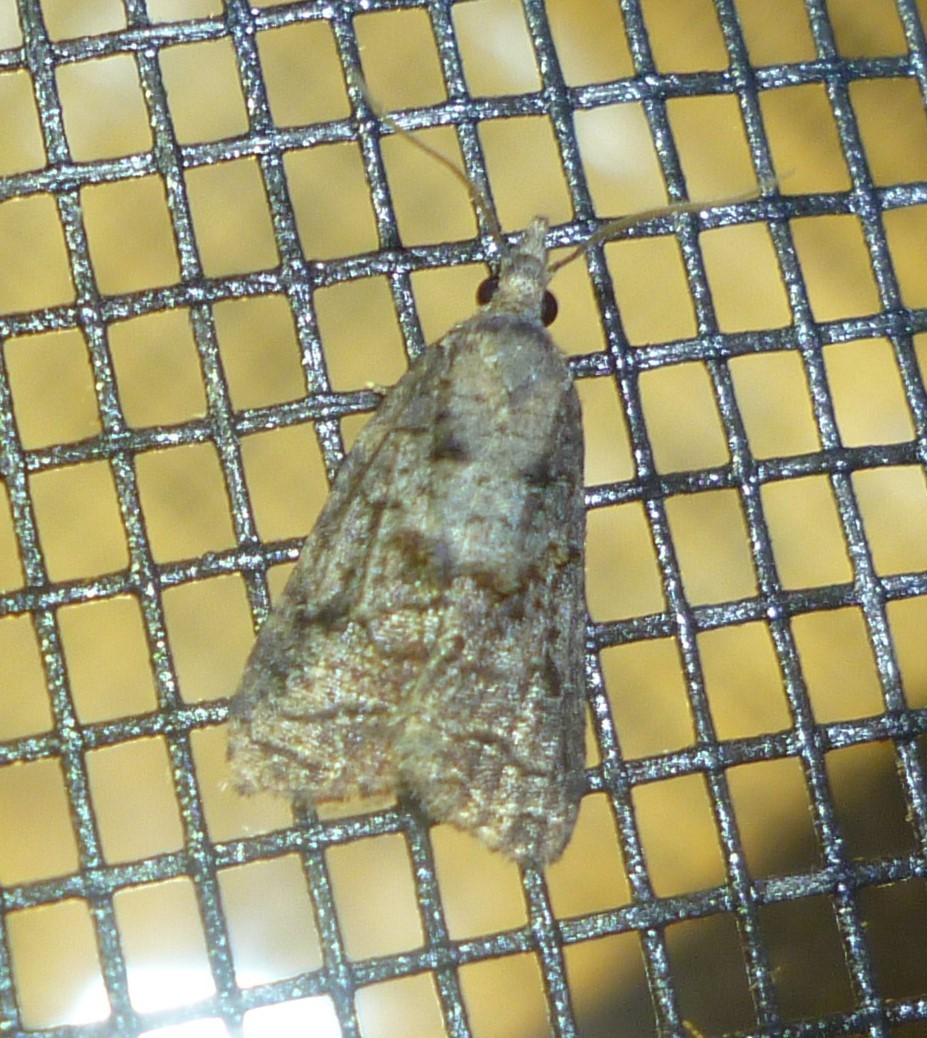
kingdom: Animalia
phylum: Arthropoda
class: Insecta
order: Lepidoptera
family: Tortricidae
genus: Platynota
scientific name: Platynota idaeusalis
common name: Tufted apple bud moth
